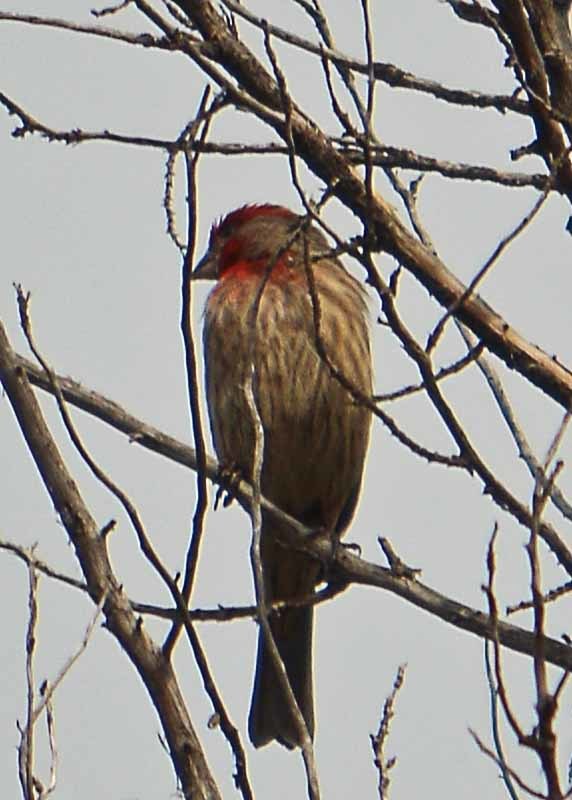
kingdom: Animalia
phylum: Chordata
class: Aves
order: Passeriformes
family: Fringillidae
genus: Haemorhous
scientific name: Haemorhous mexicanus
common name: House finch
